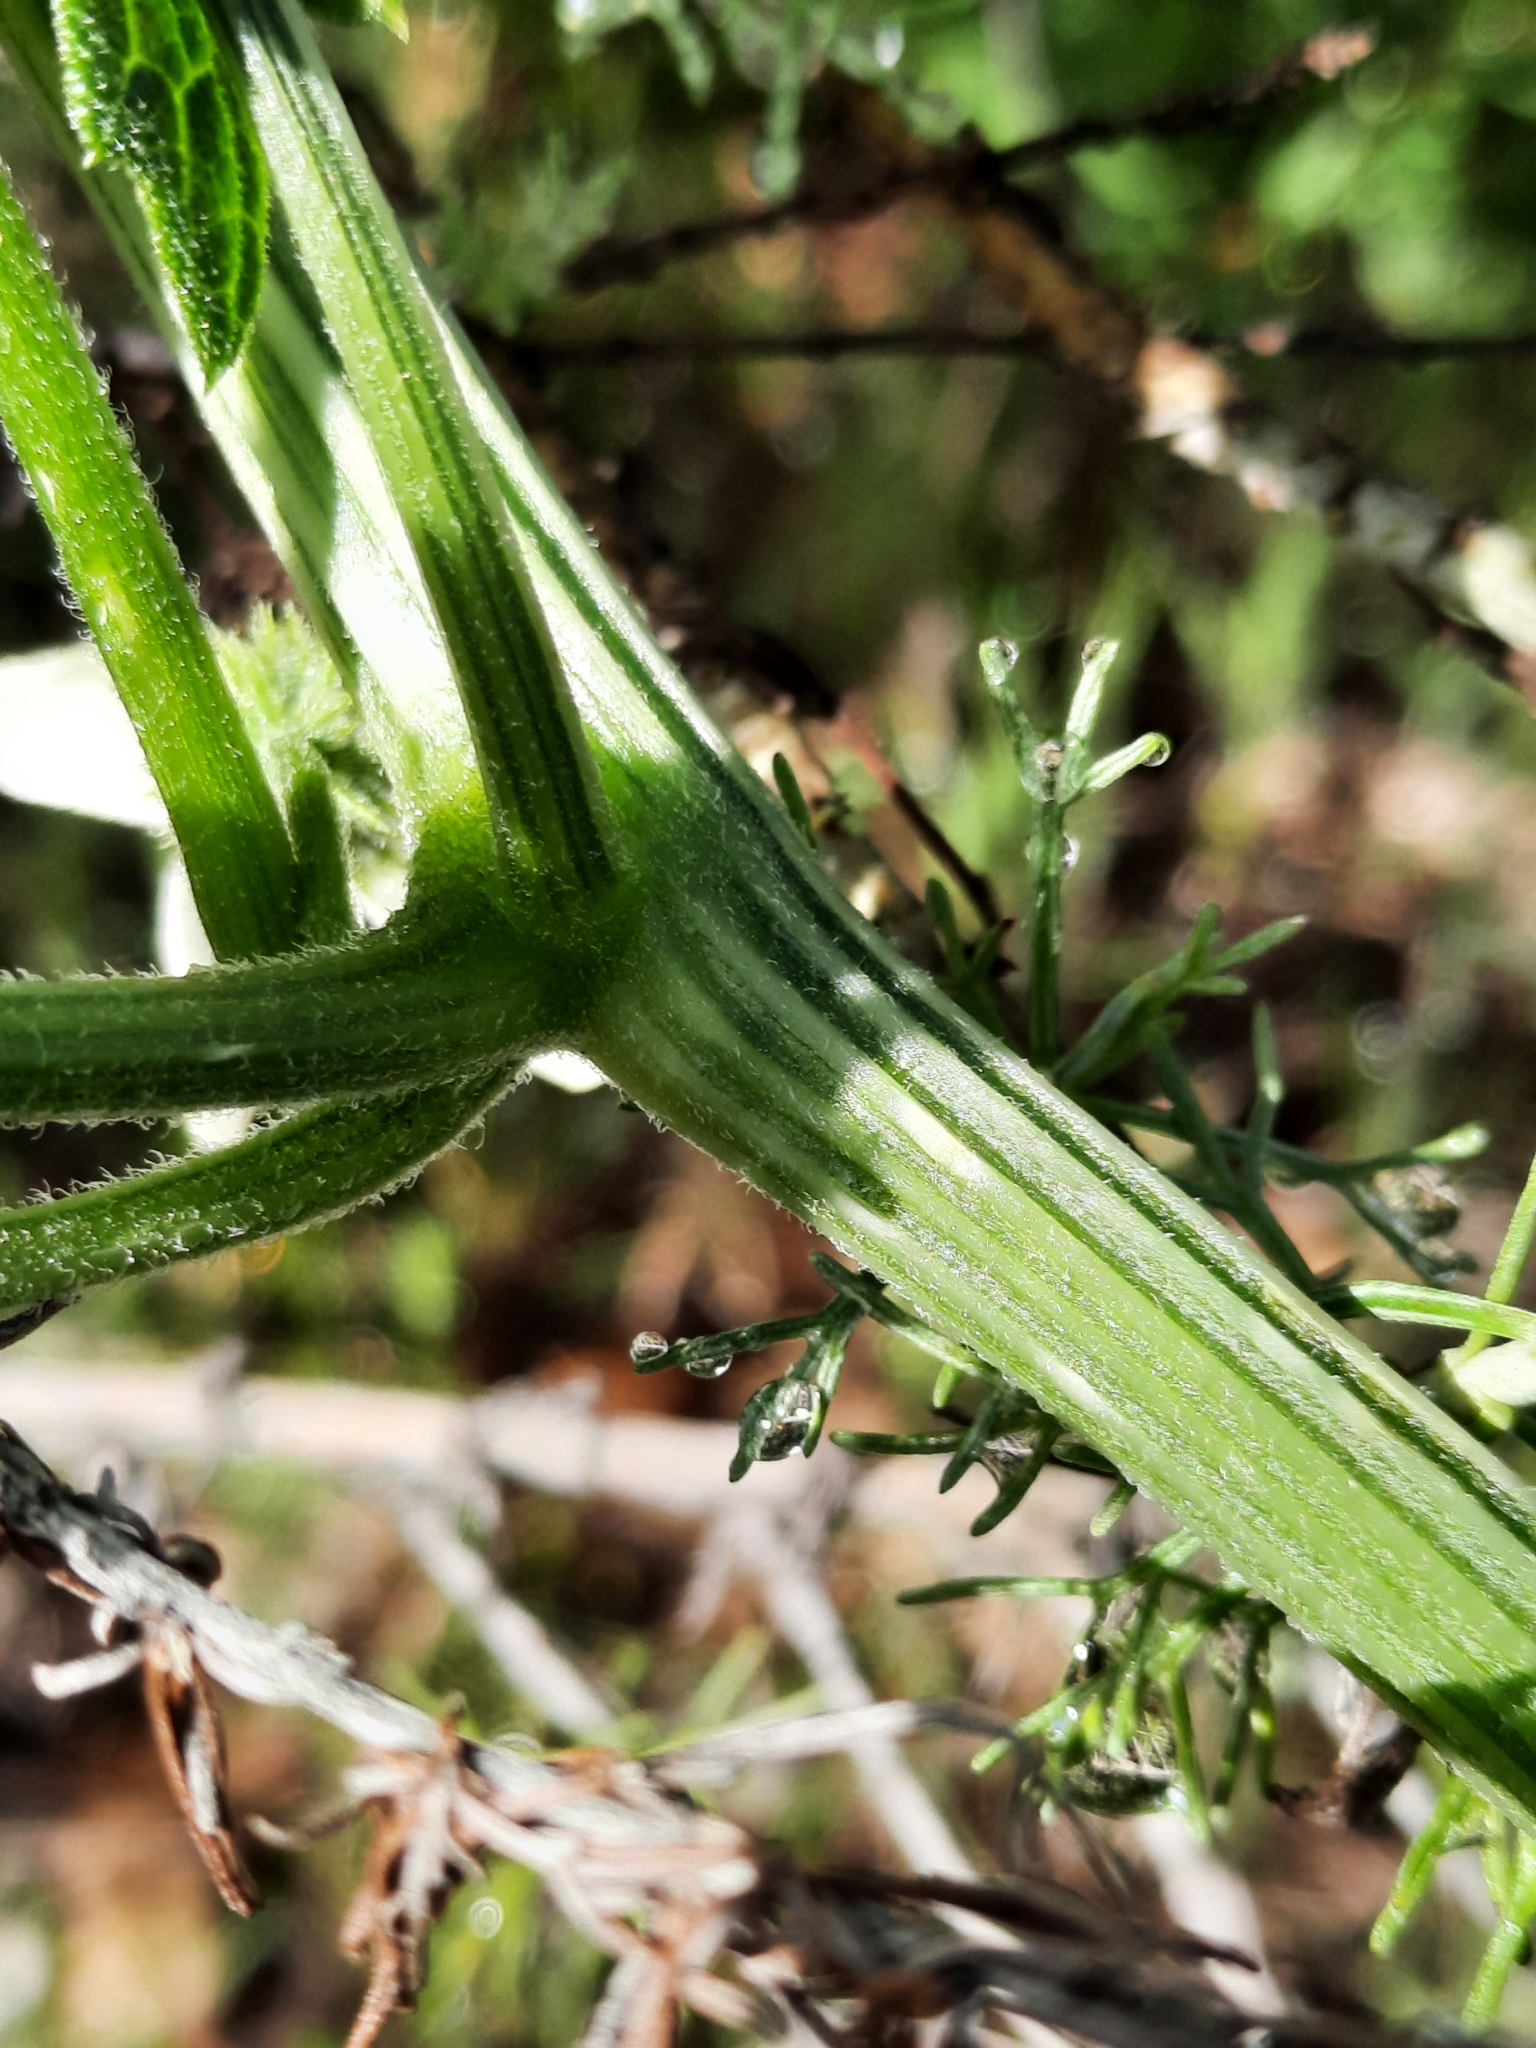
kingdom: Plantae
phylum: Tracheophyta
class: Magnoliopsida
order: Cucurbitales
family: Cucurbitaceae
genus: Marah
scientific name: Marah macrocarpa
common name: Cucamonga manroot
